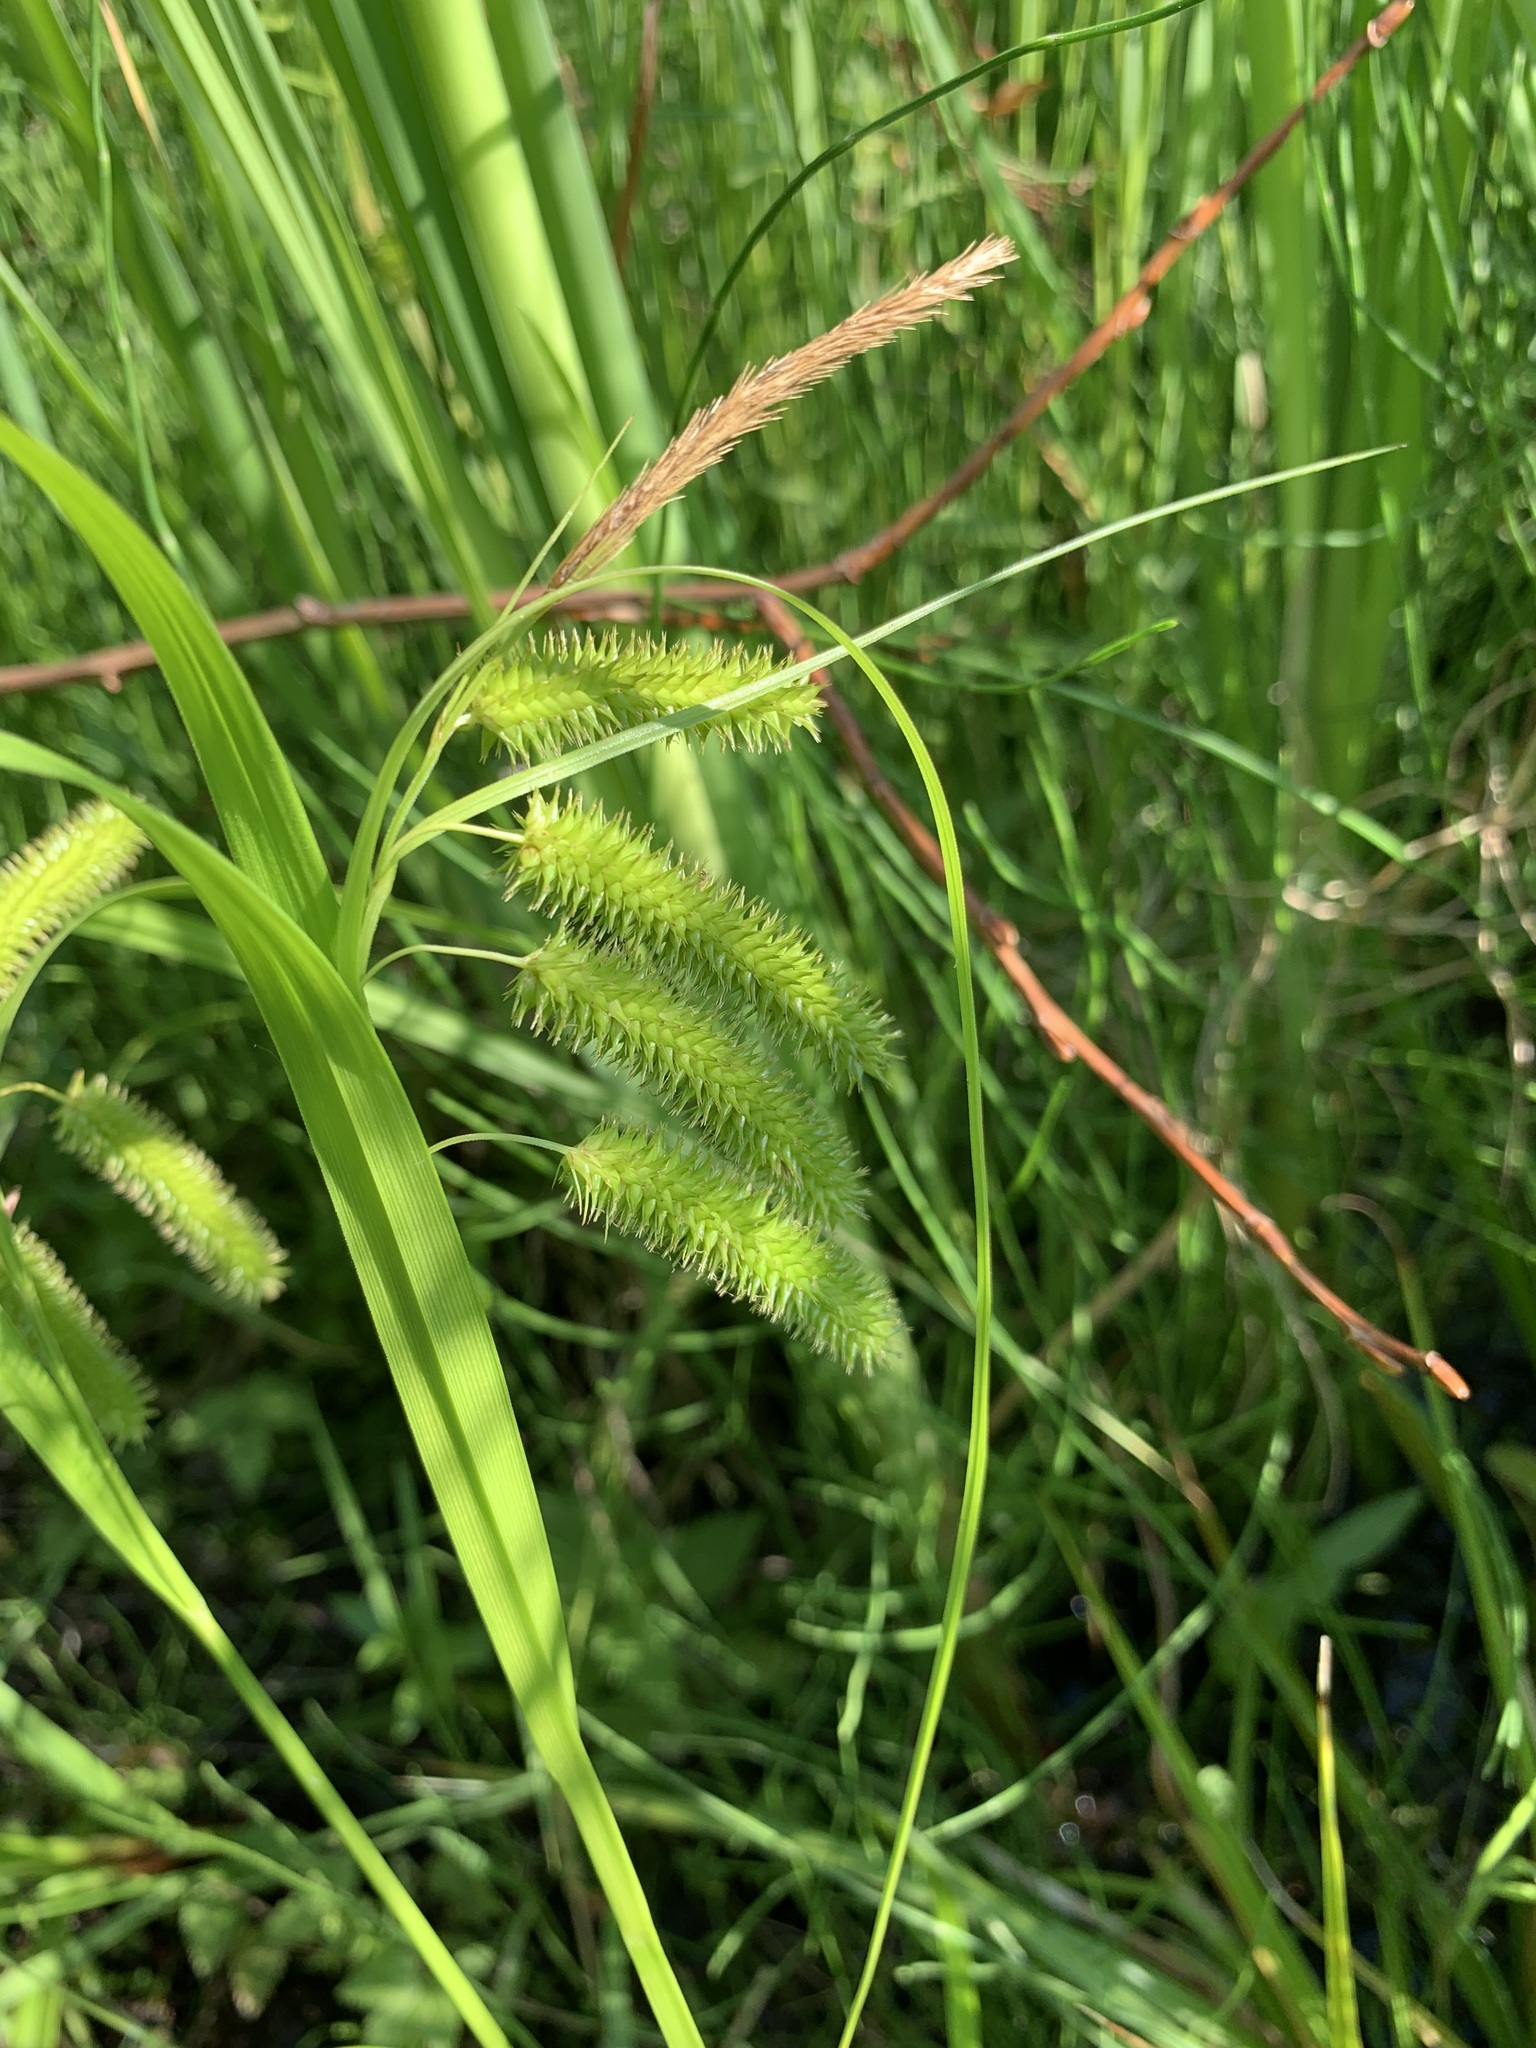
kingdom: Plantae
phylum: Tracheophyta
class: Liliopsida
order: Poales
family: Cyperaceae
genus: Carex
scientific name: Carex pseudocyperus
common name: Cyperus sedge
